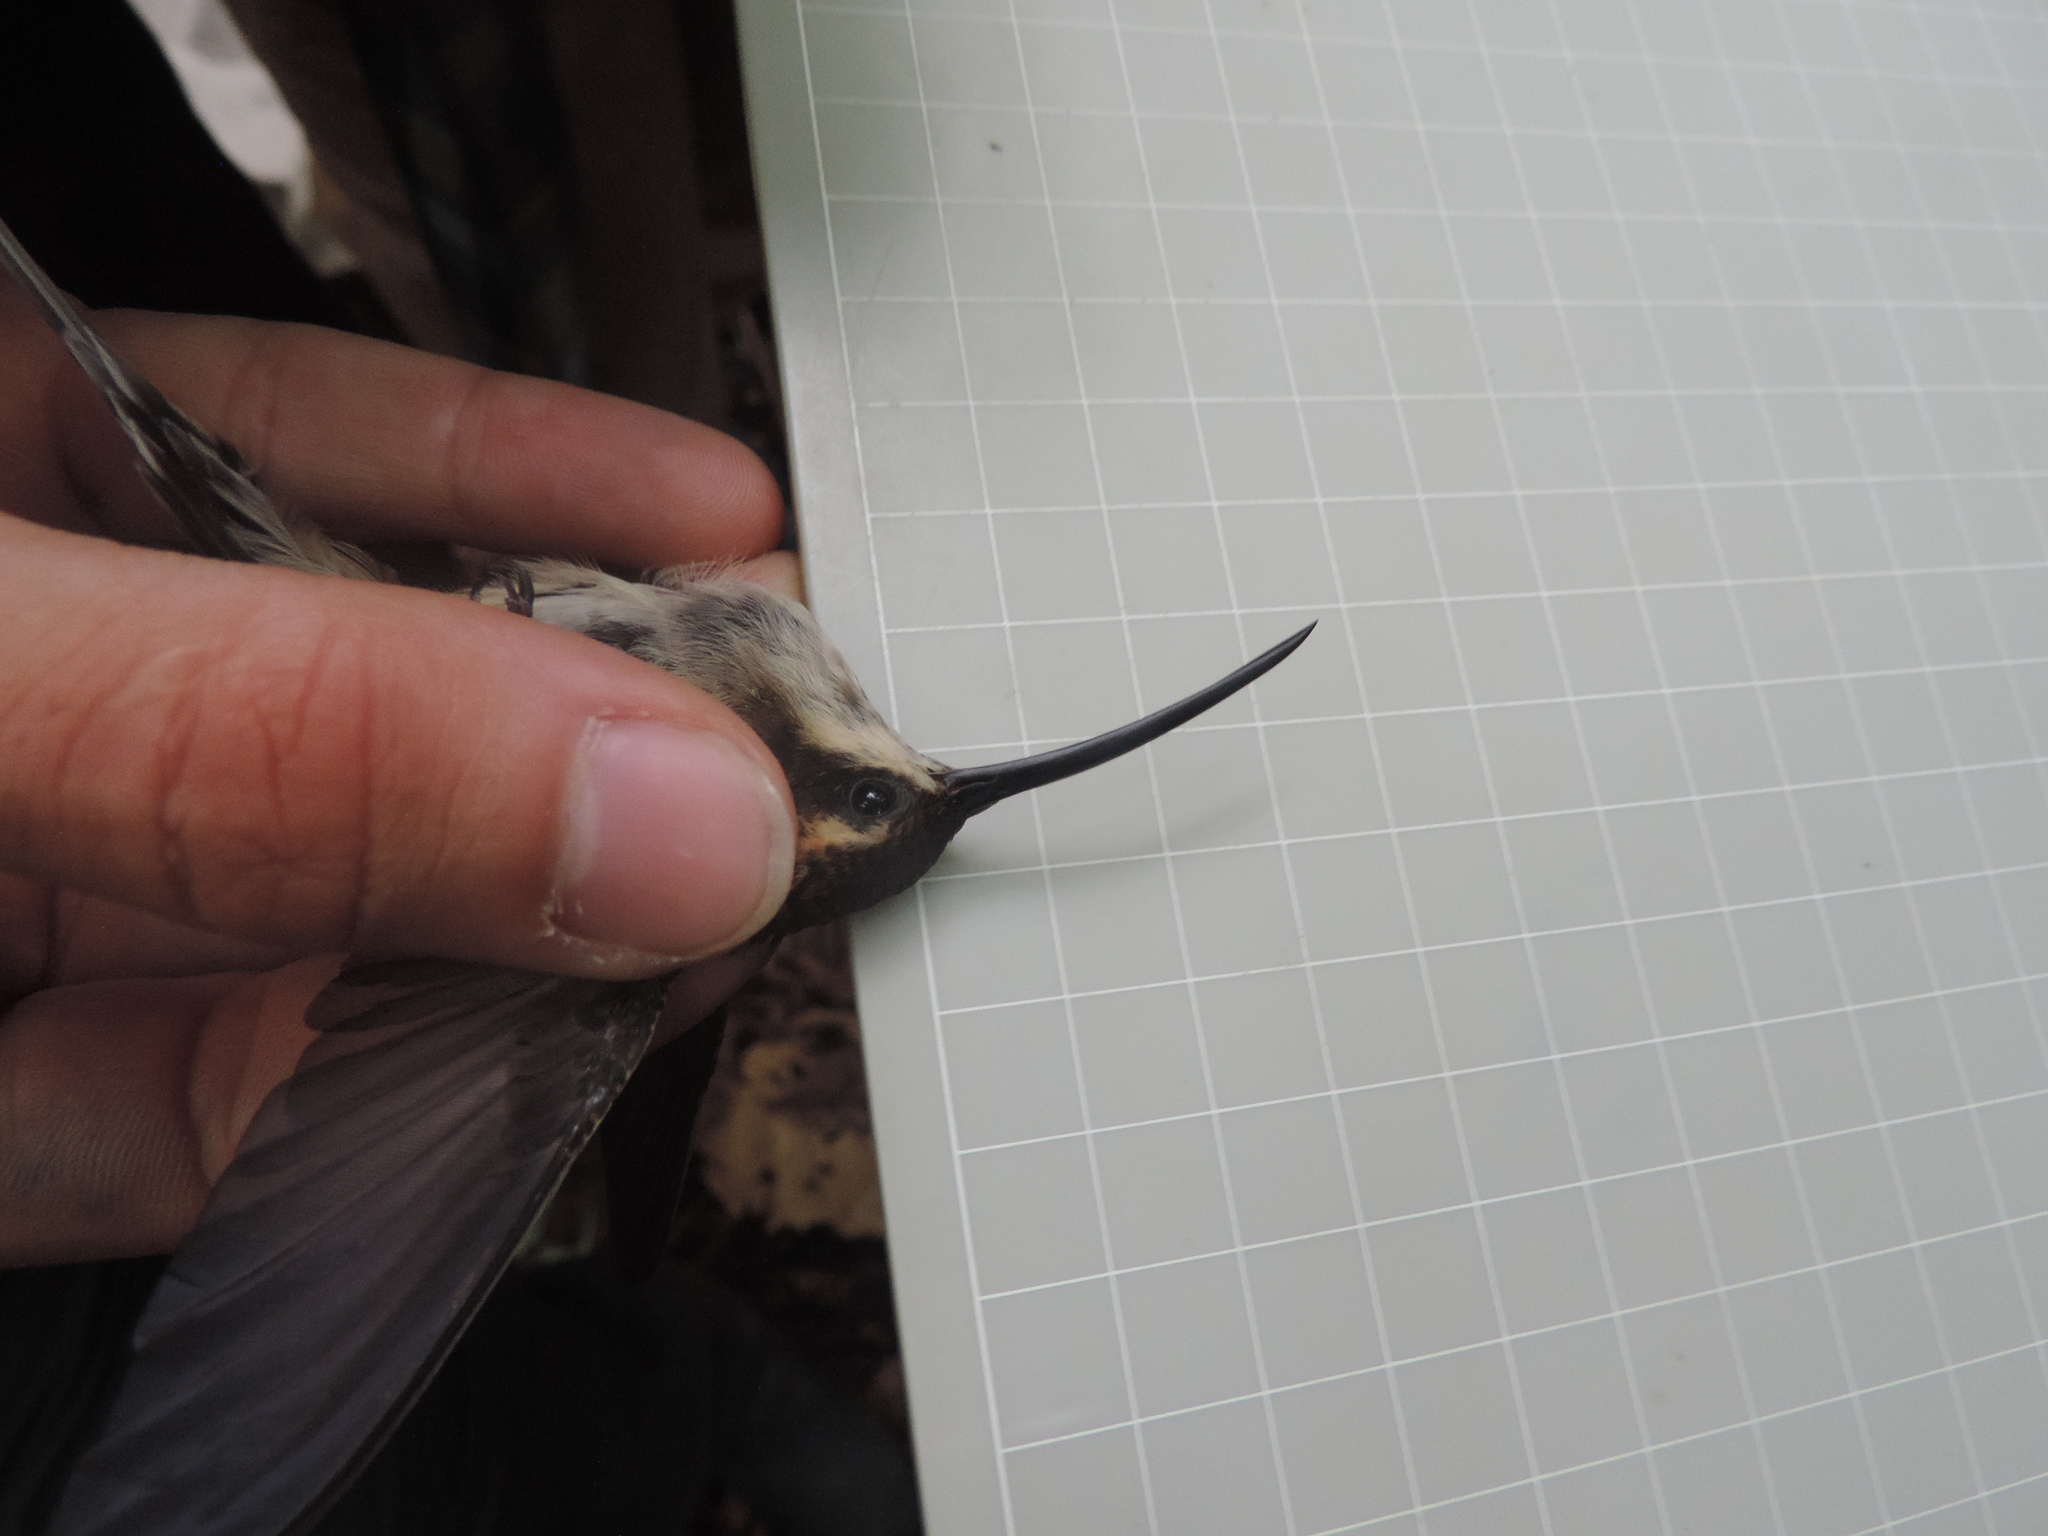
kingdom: Animalia
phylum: Chordata
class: Aves
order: Apodiformes
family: Trochilidae
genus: Phaethornis
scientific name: Phaethornis longirostris
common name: Long-billed hermit
